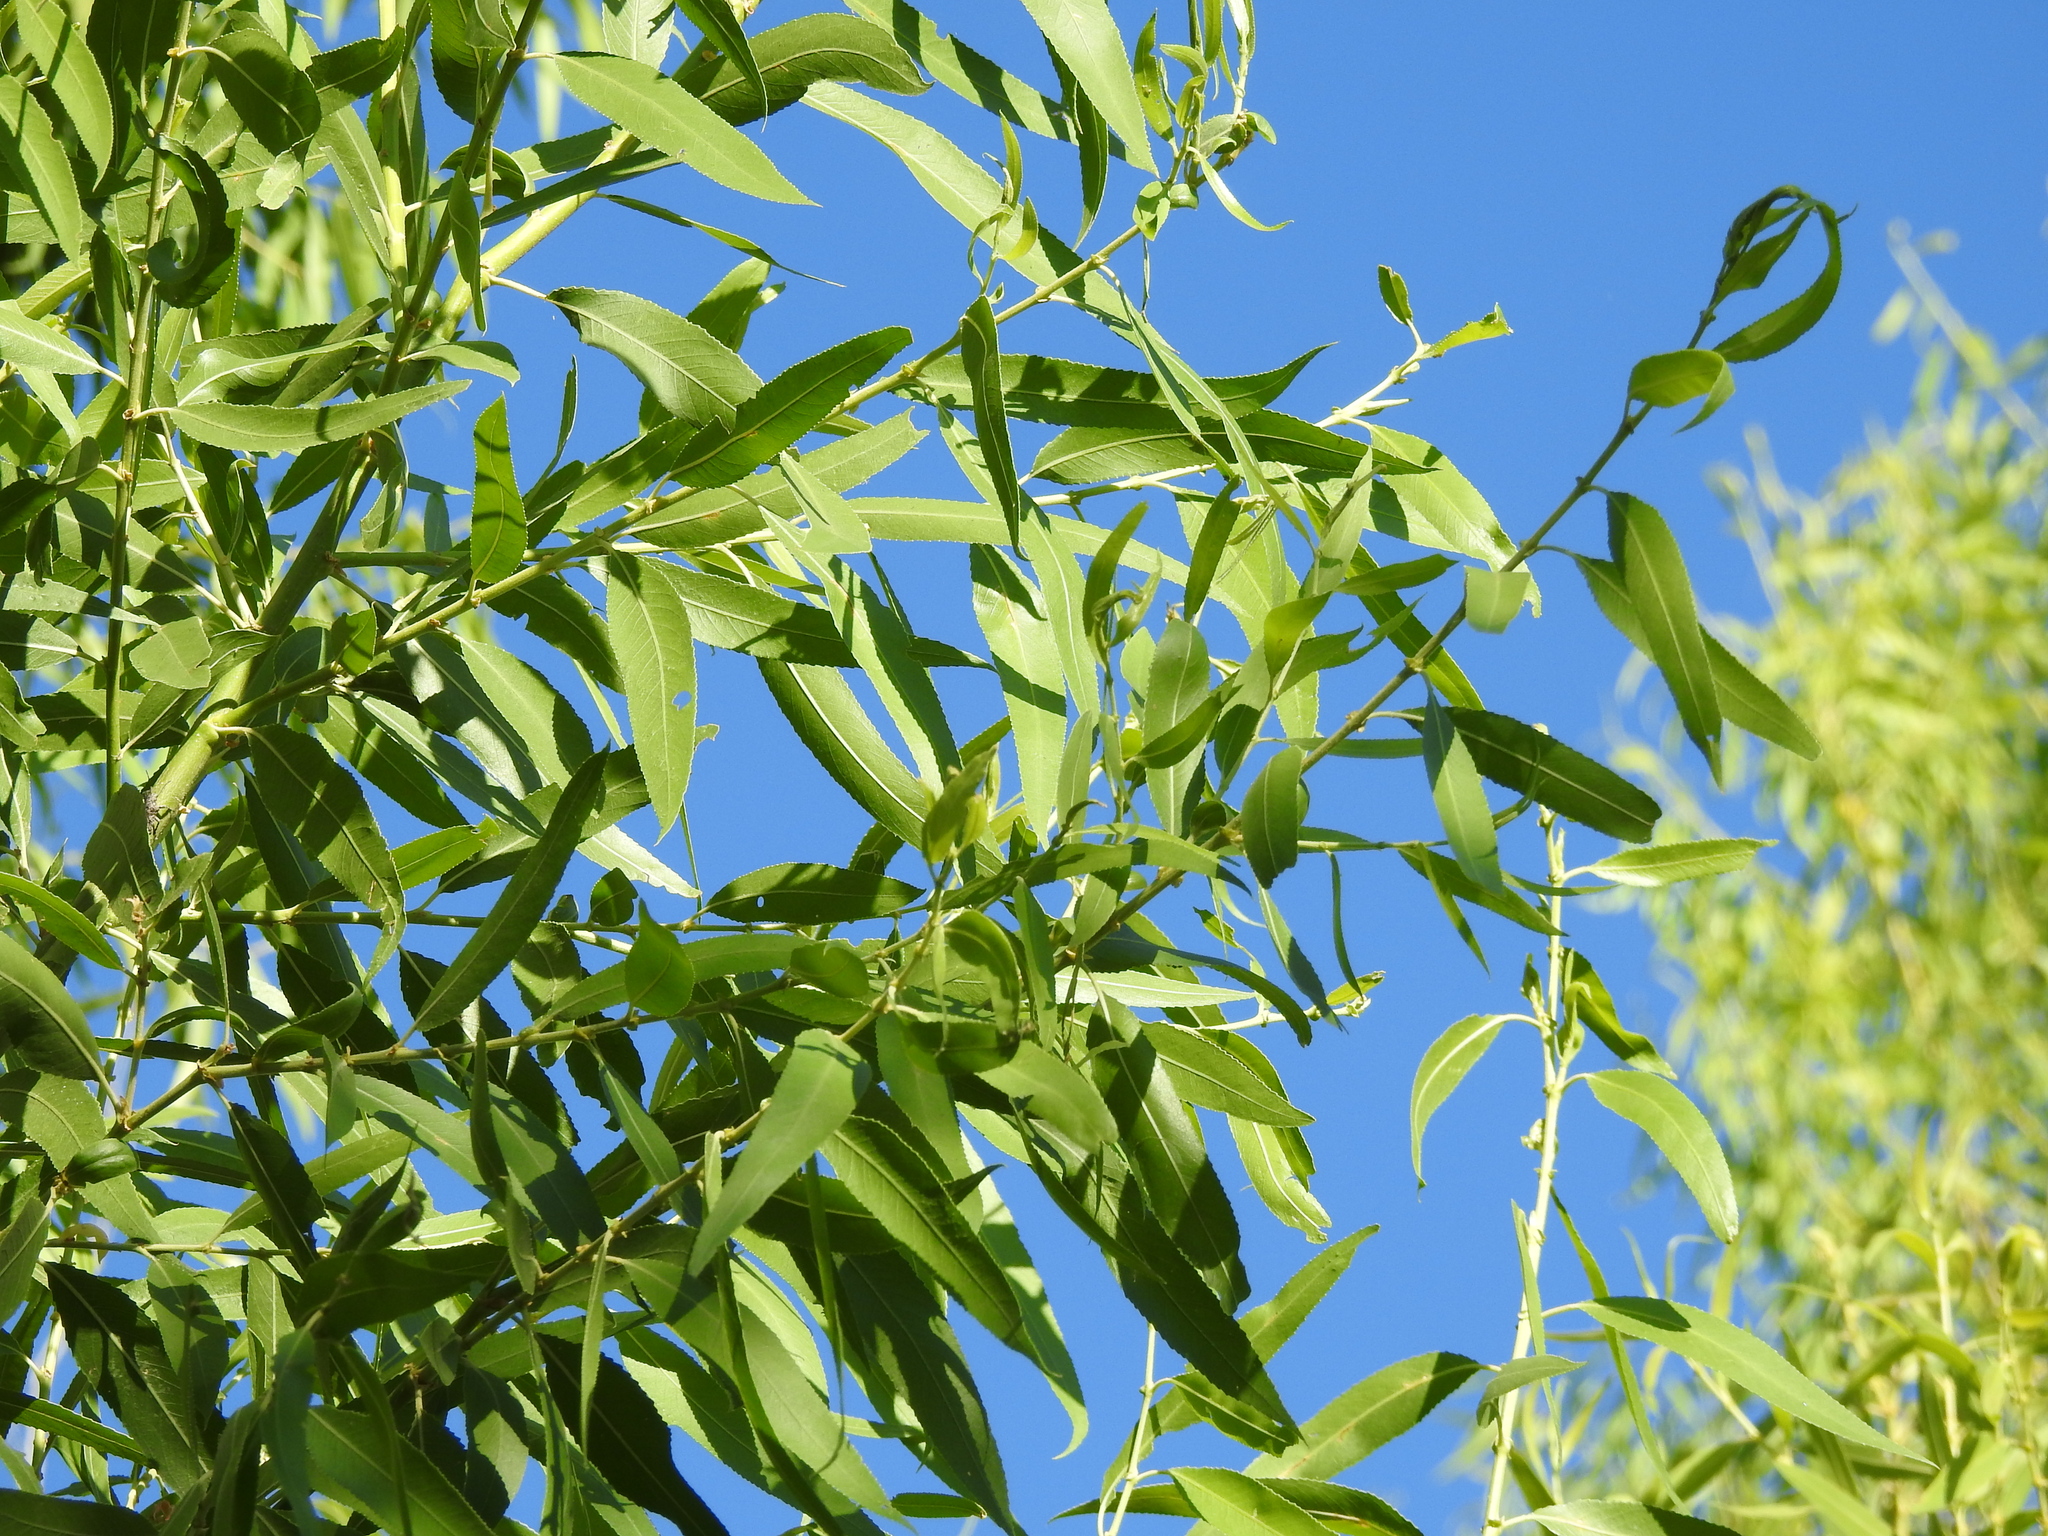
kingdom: Plantae
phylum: Tracheophyta
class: Magnoliopsida
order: Malpighiales
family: Salicaceae
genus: Salix
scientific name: Salix gooddingii
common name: Goodding's willow
